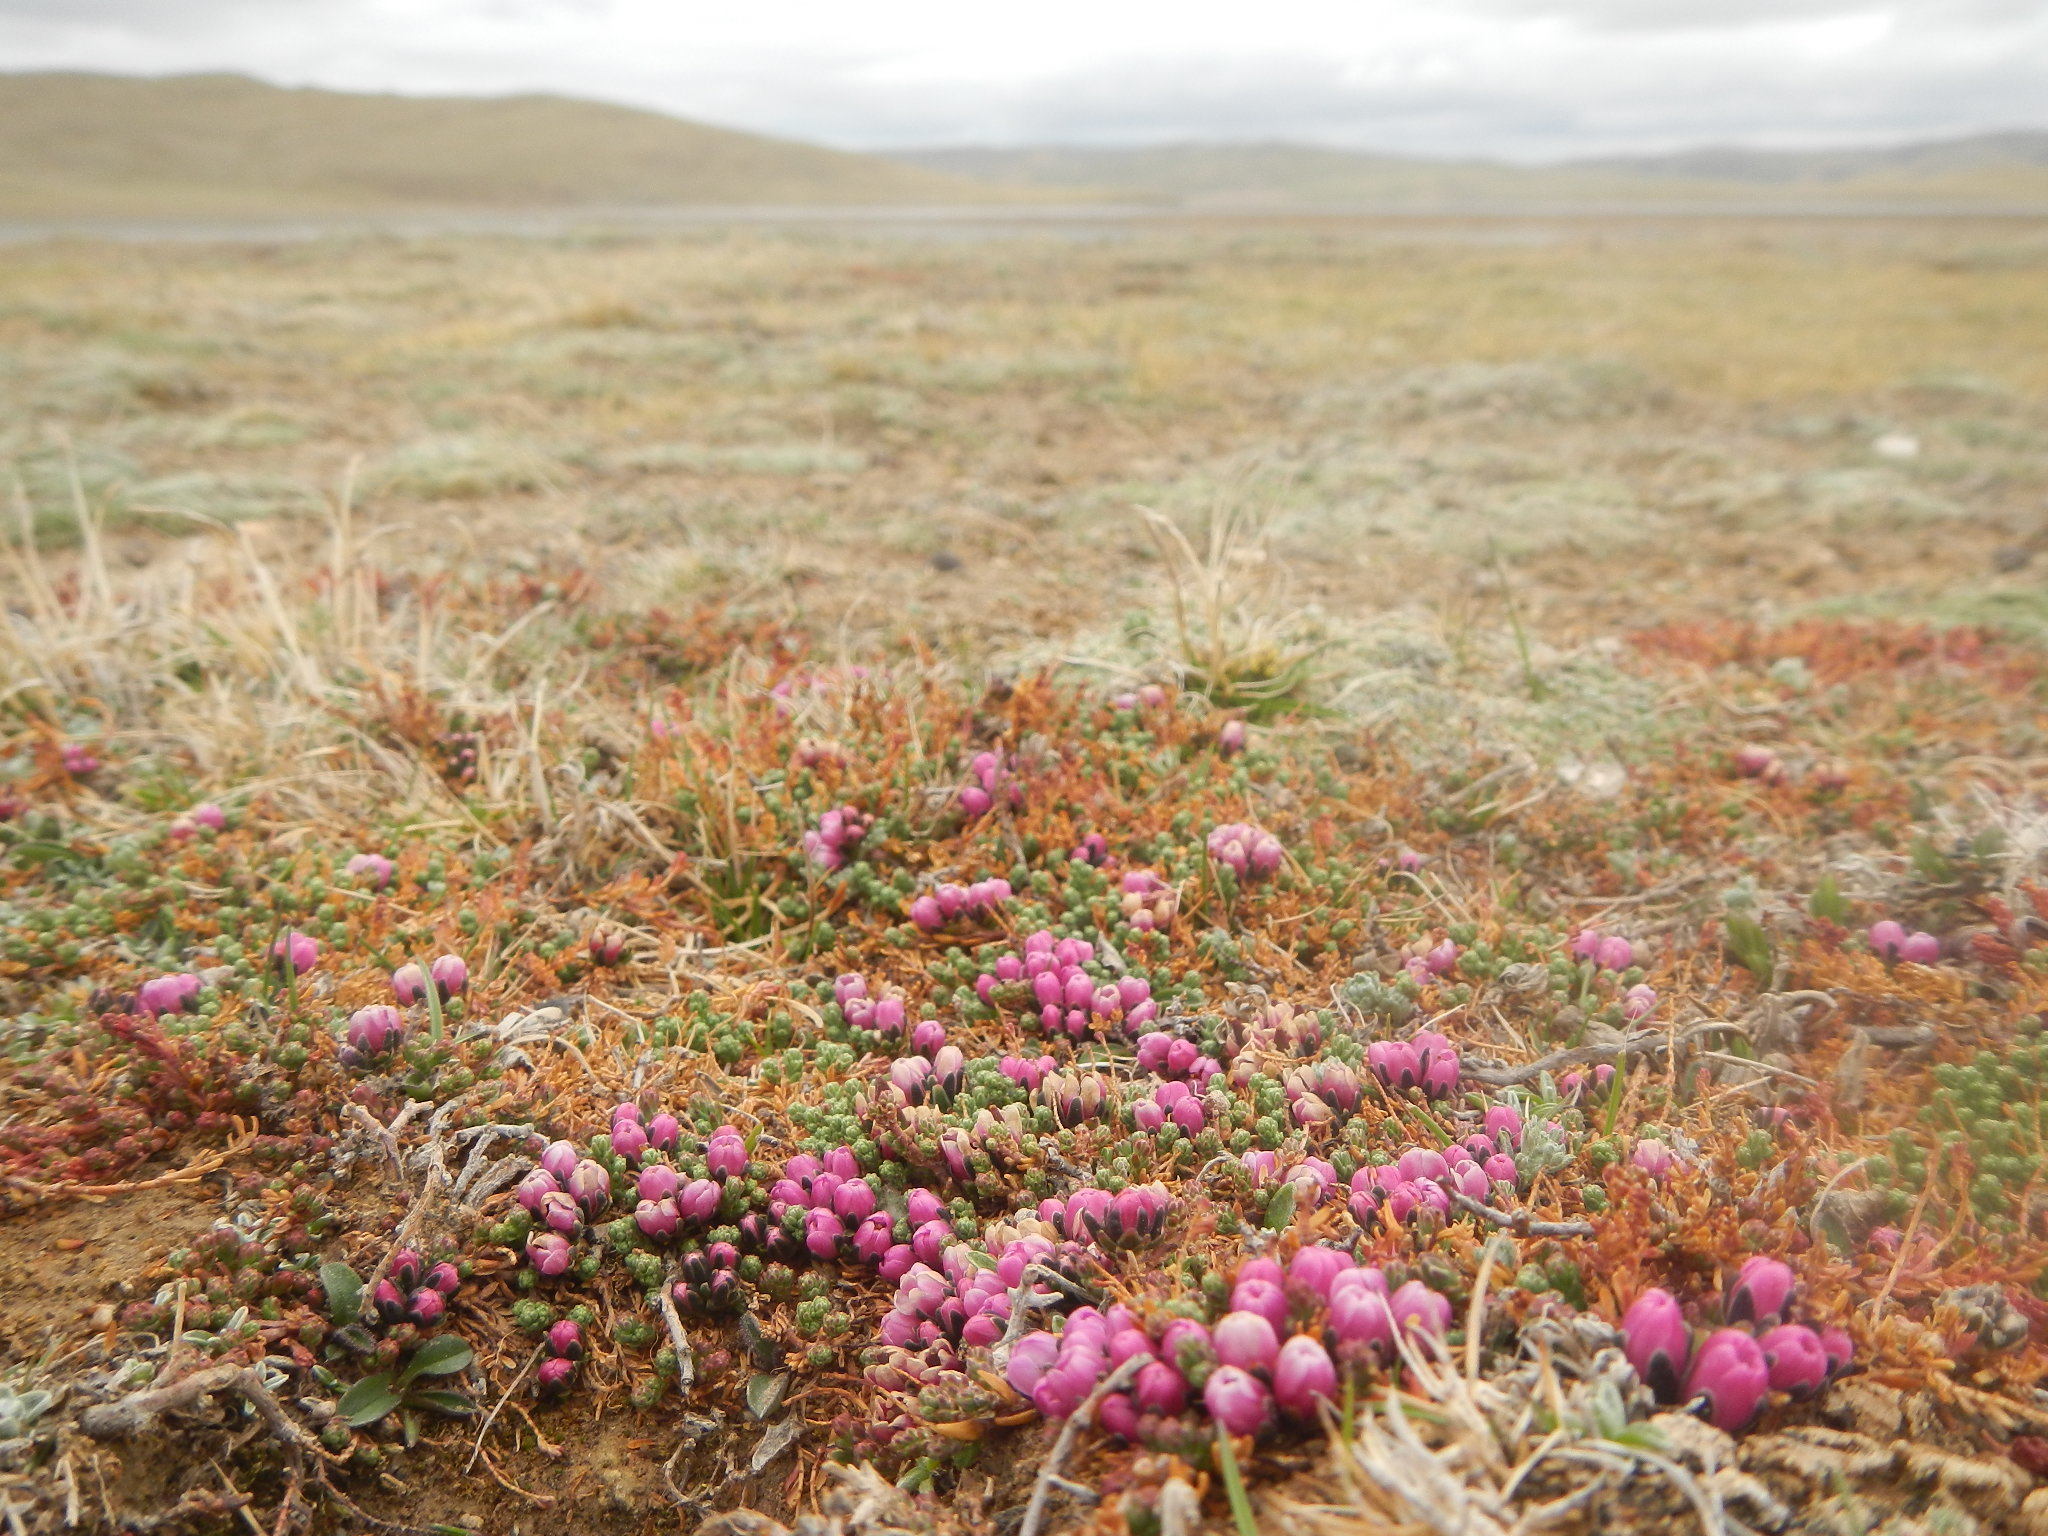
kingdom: Plantae
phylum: Tracheophyta
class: Magnoliopsida
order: Caryophyllales
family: Tamaricaceae
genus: Myricaria
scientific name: Myricaria prostrata
